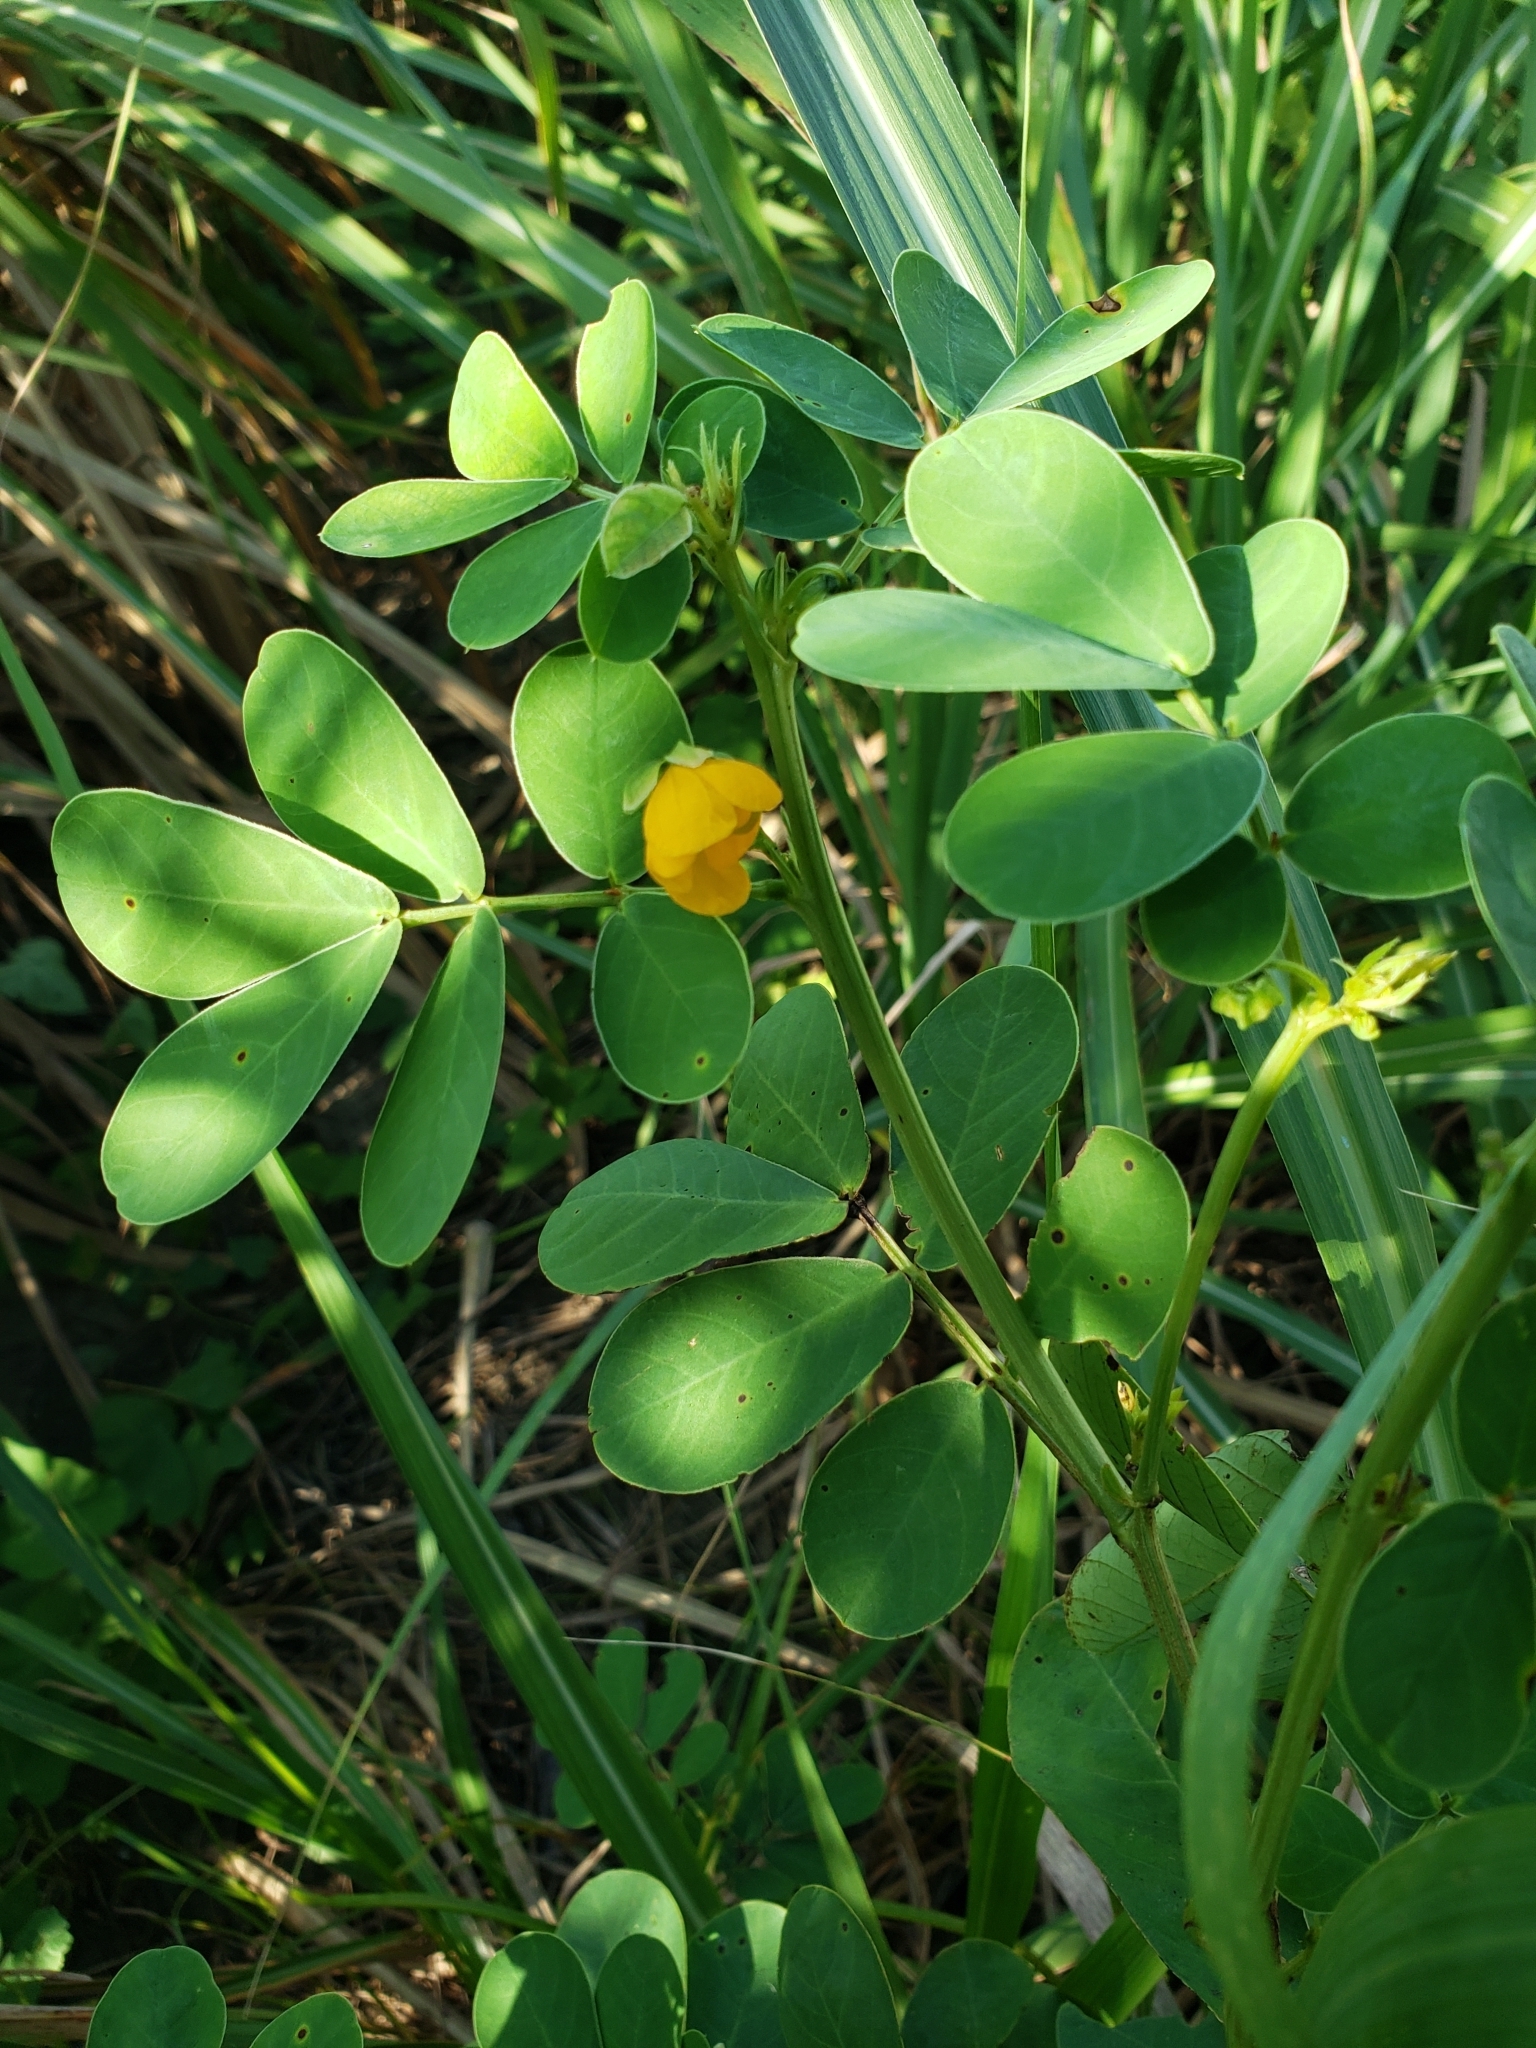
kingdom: Plantae
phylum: Tracheophyta
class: Magnoliopsida
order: Fabales
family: Fabaceae
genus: Senna
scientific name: Senna obtusifolia
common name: Java-bean
